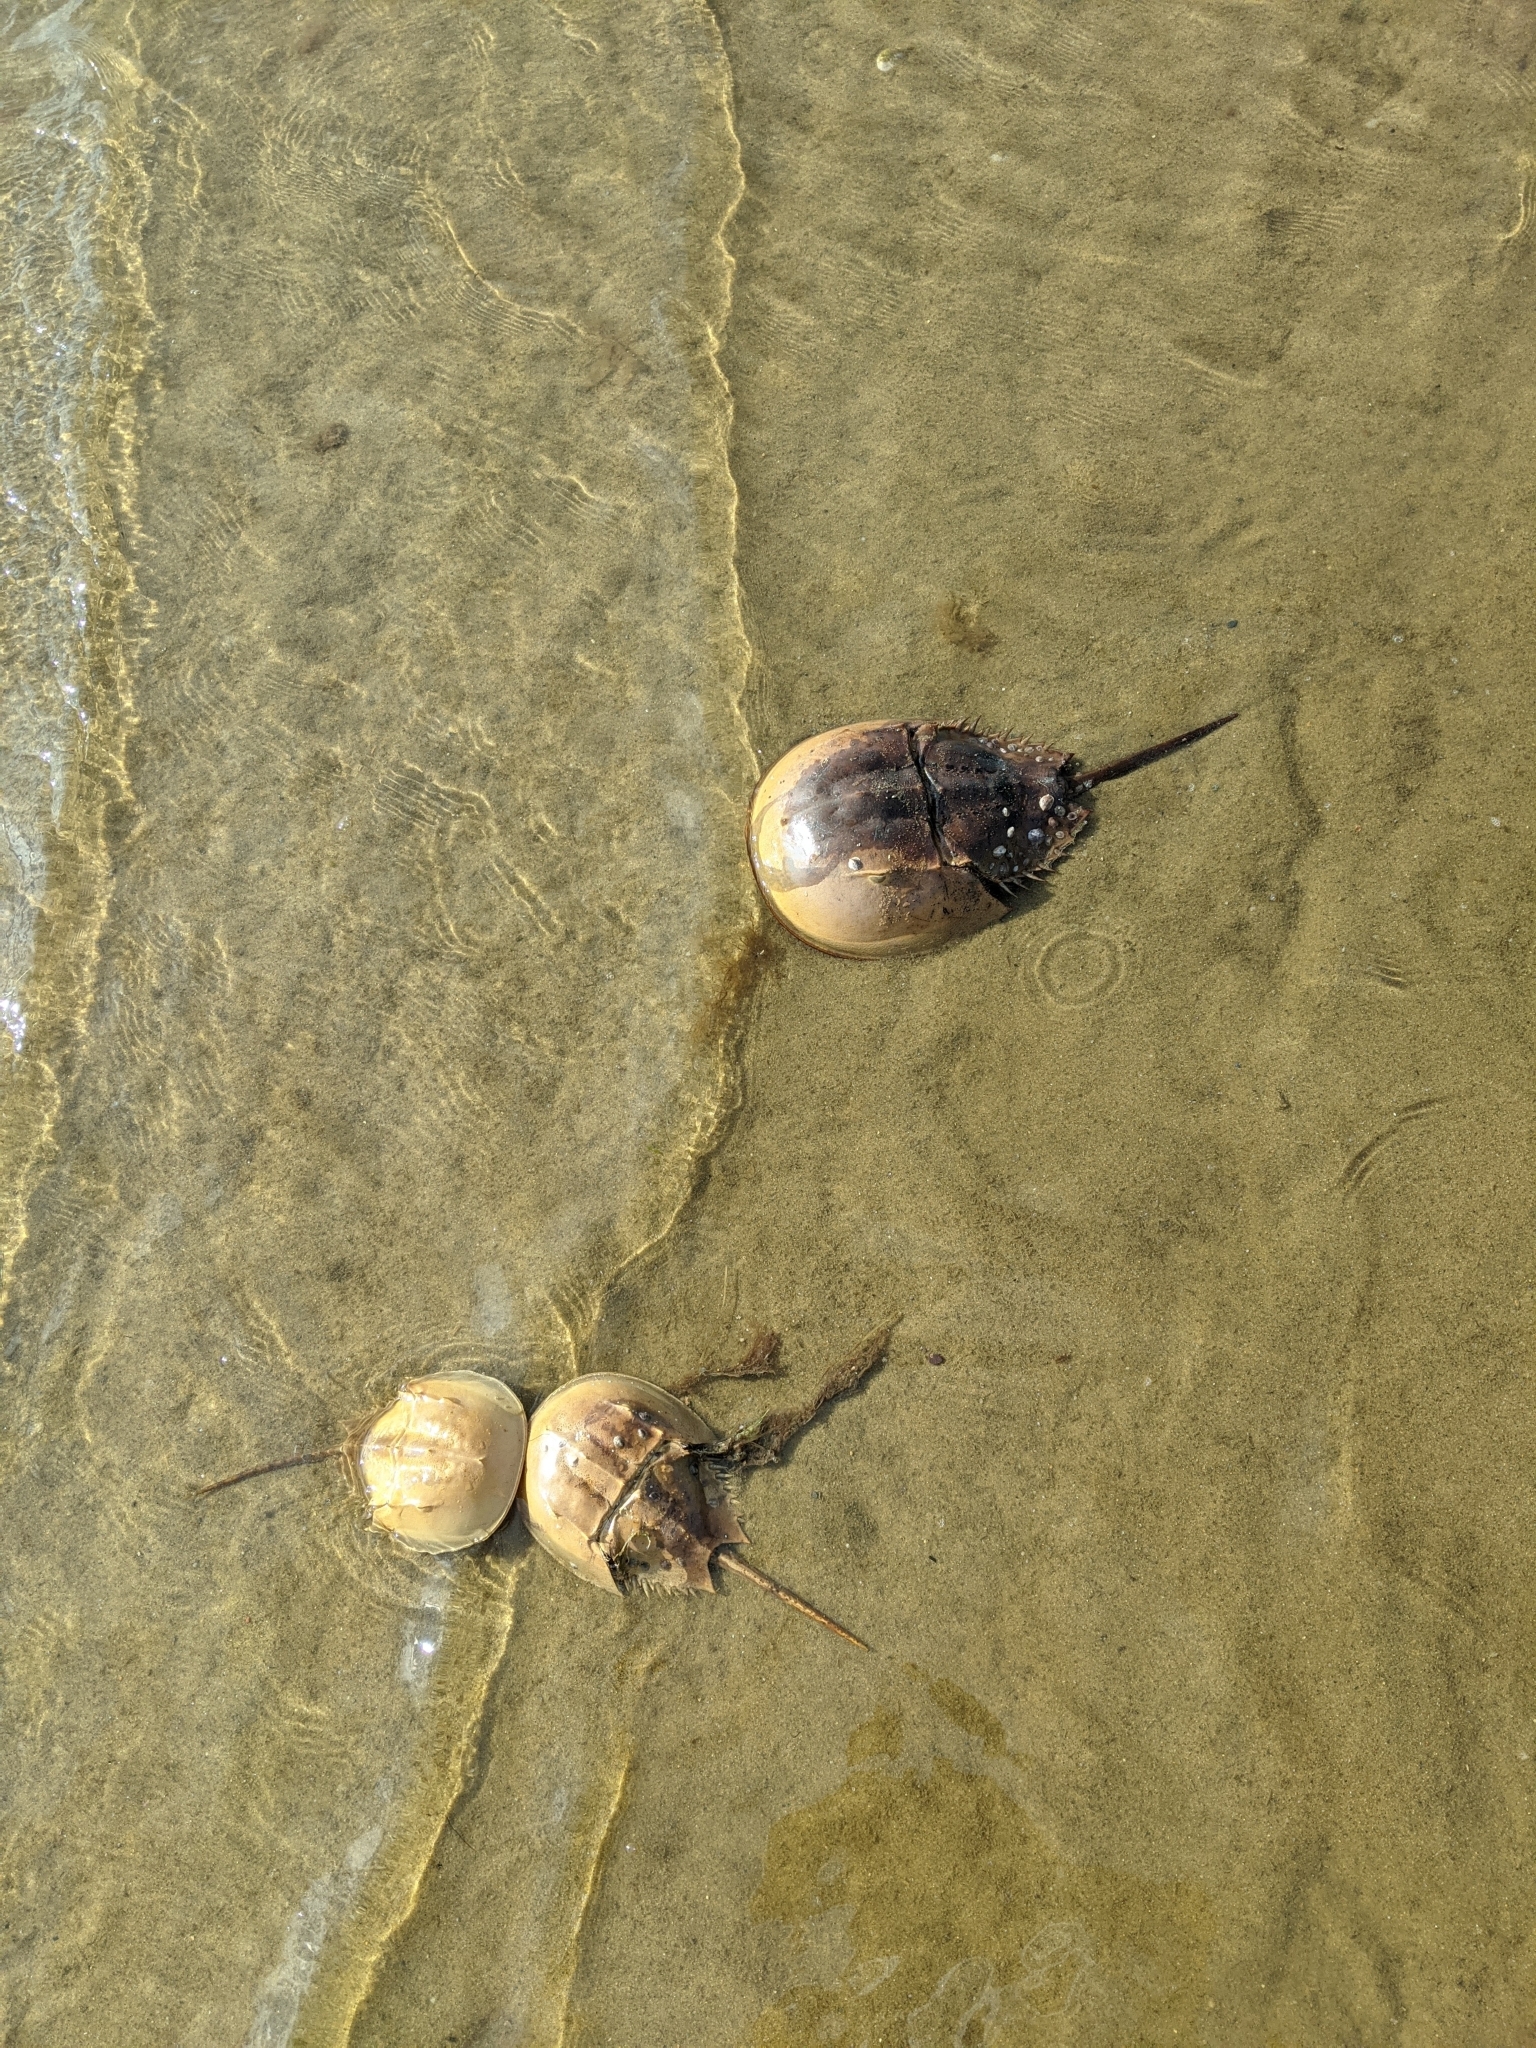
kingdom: Animalia
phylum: Arthropoda
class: Merostomata
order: Xiphosurida
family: Limulidae
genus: Limulus
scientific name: Limulus polyphemus
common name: Horseshoe crab
